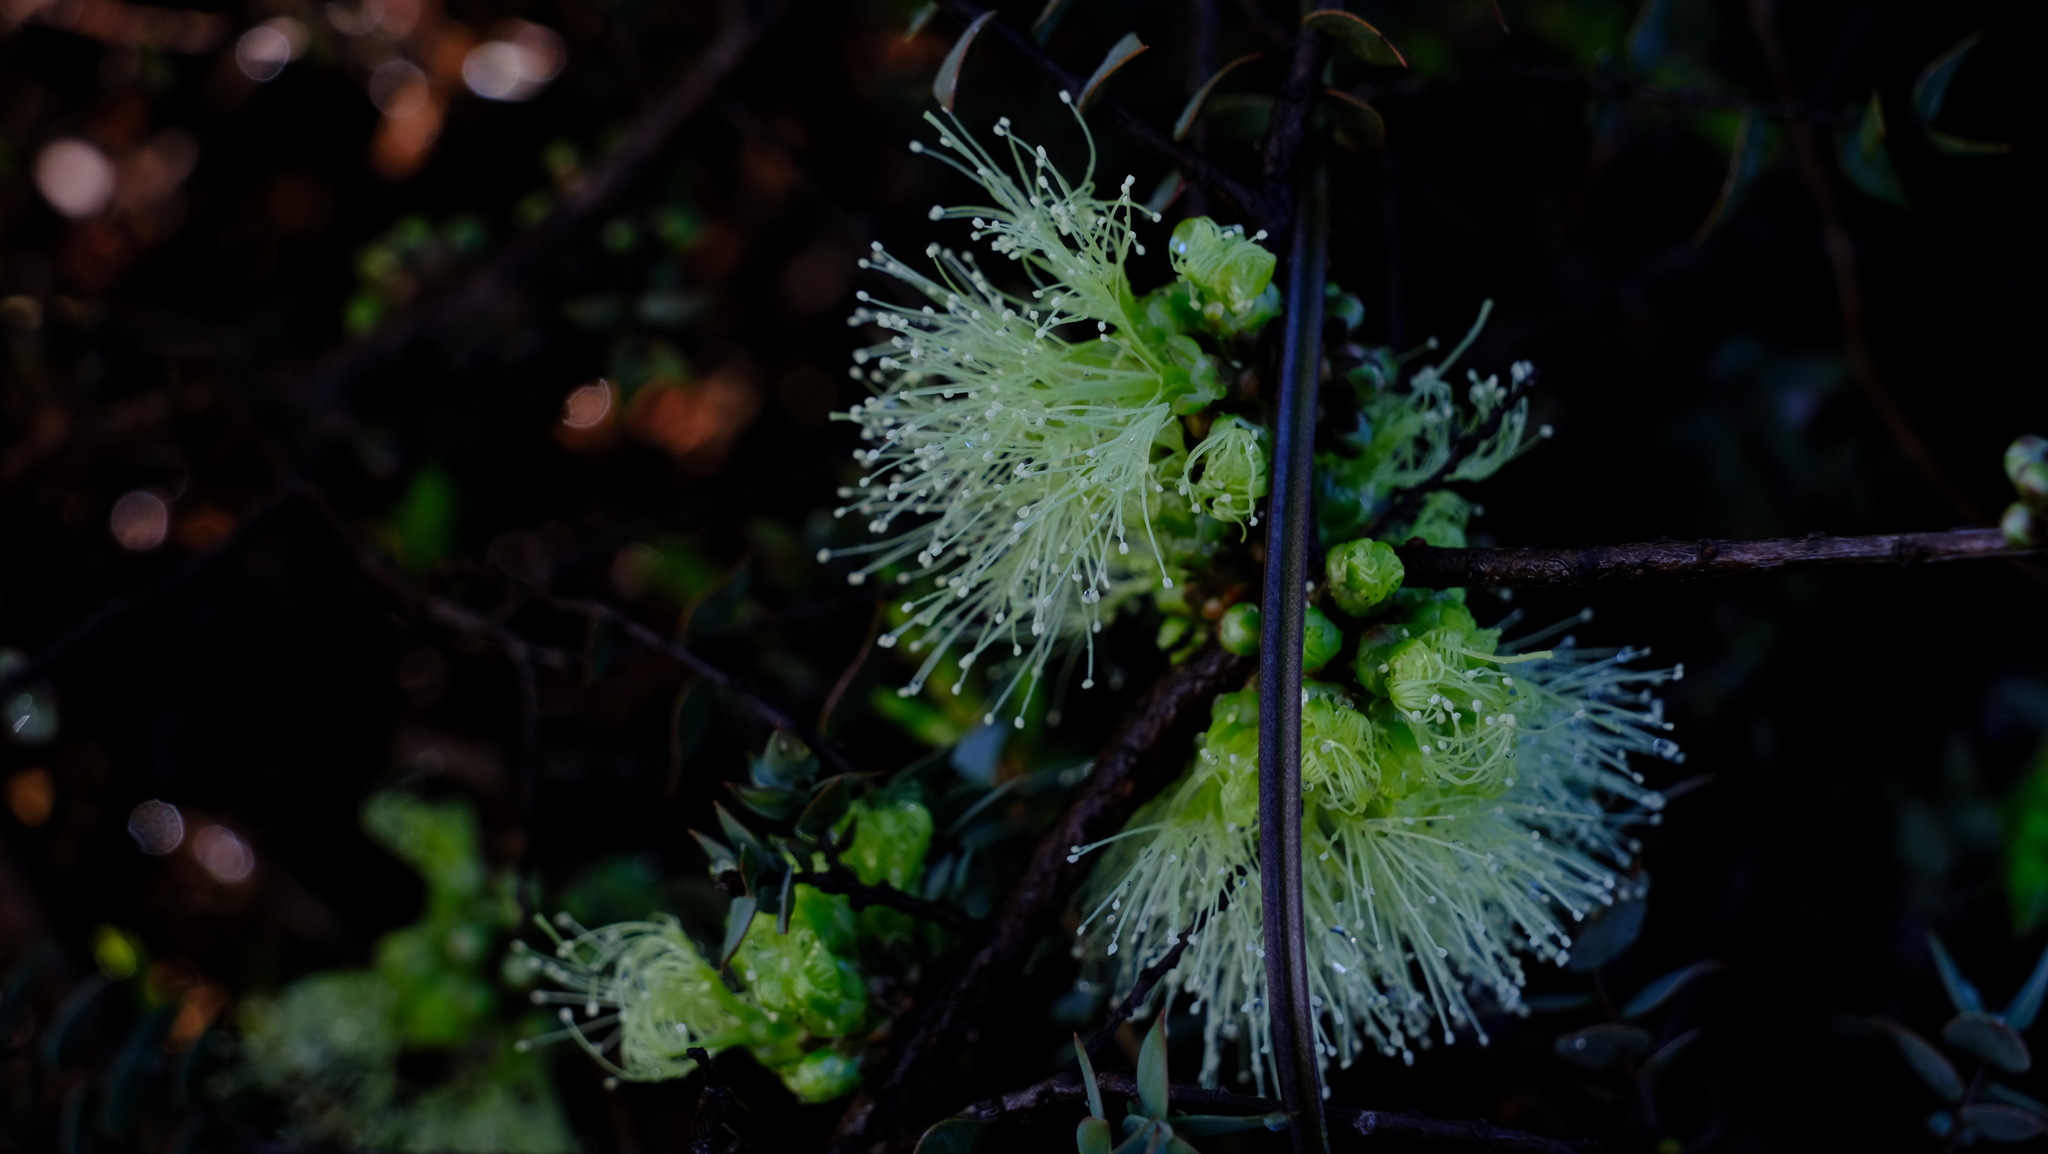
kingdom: Plantae
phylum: Tracheophyta
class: Magnoliopsida
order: Myrtales
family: Myrtaceae
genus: Melaleuca
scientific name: Melaleuca longistaminea
